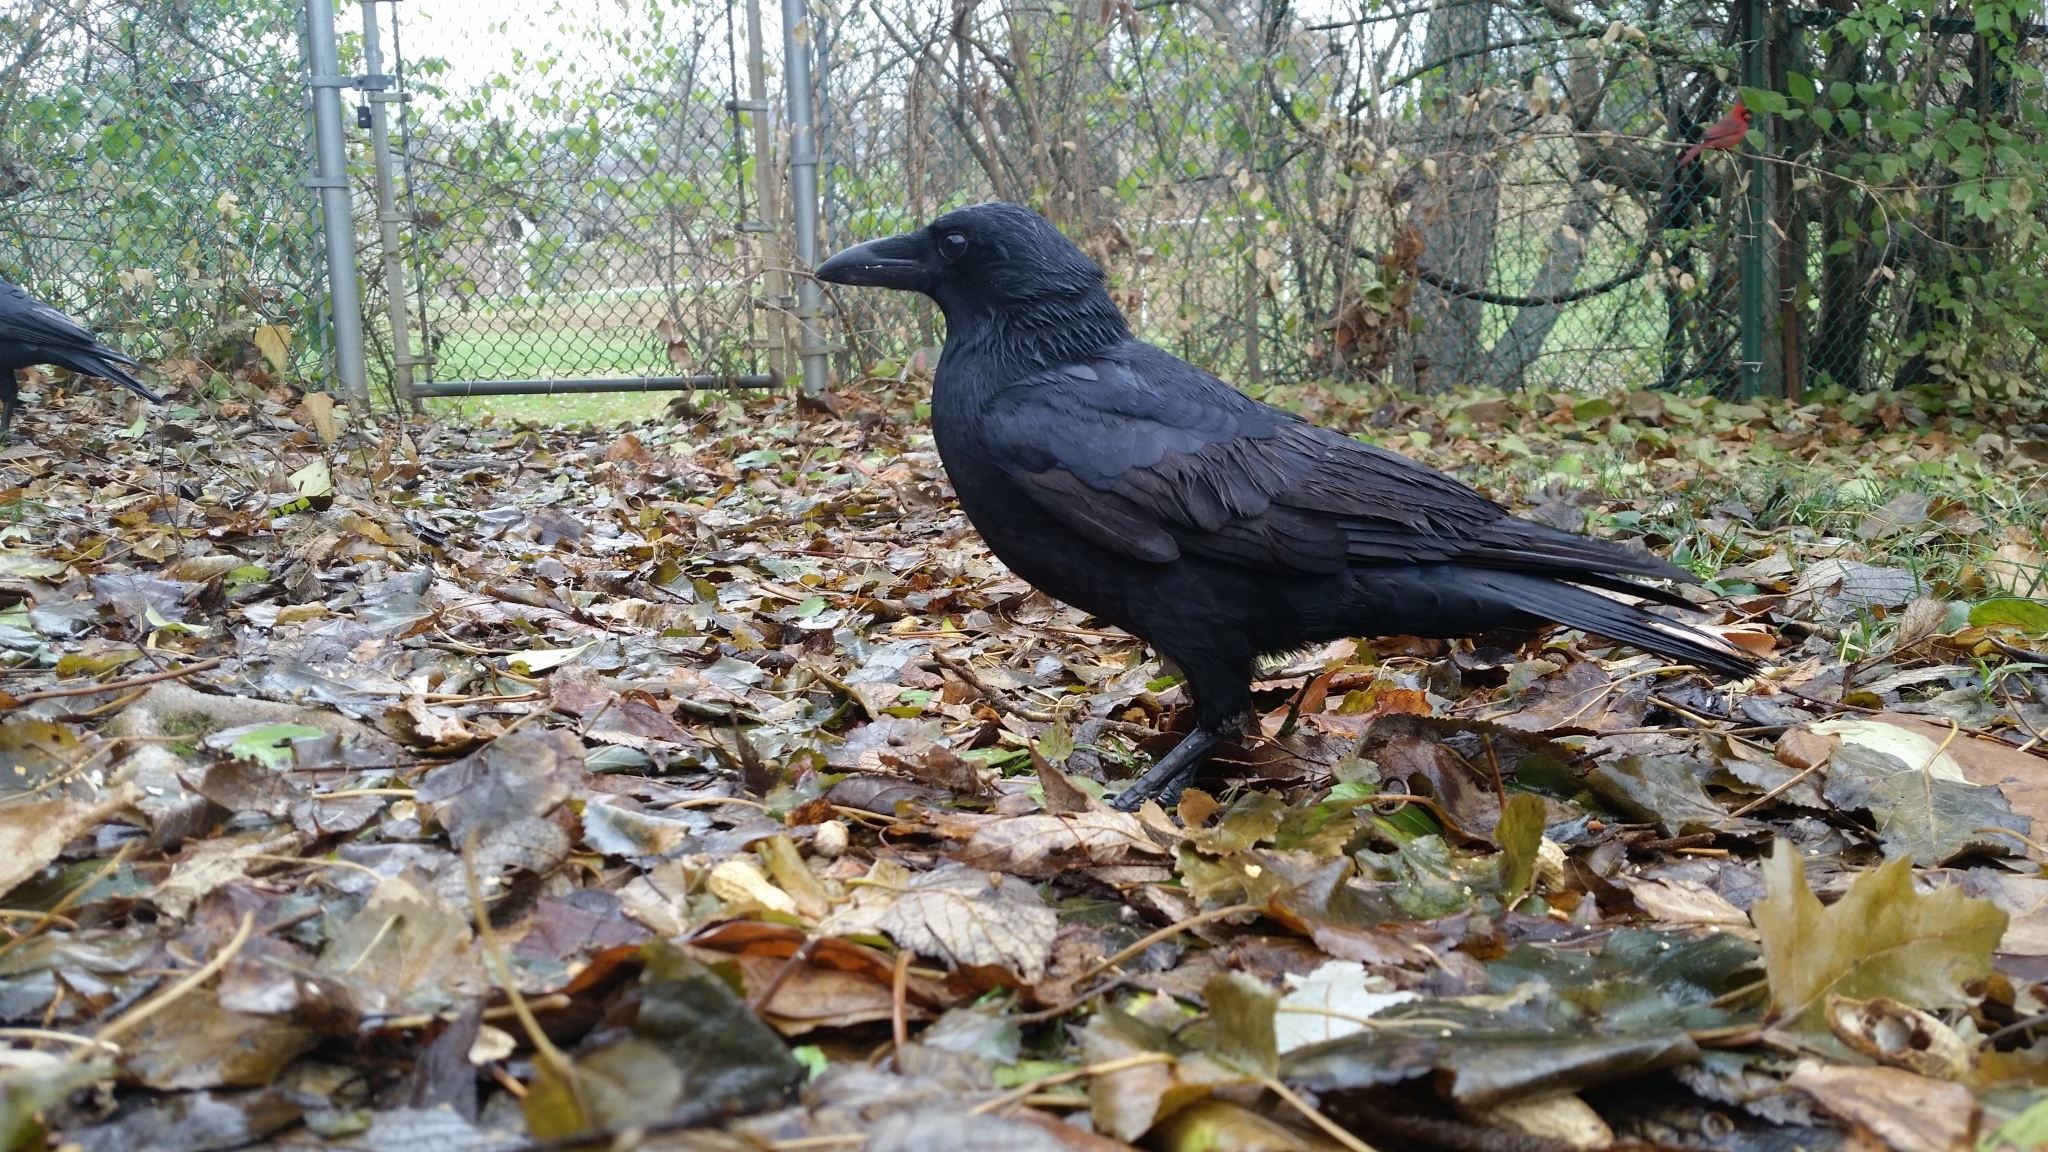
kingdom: Animalia
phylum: Chordata
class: Aves
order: Passeriformes
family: Corvidae
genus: Corvus
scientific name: Corvus brachyrhynchos
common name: American crow
